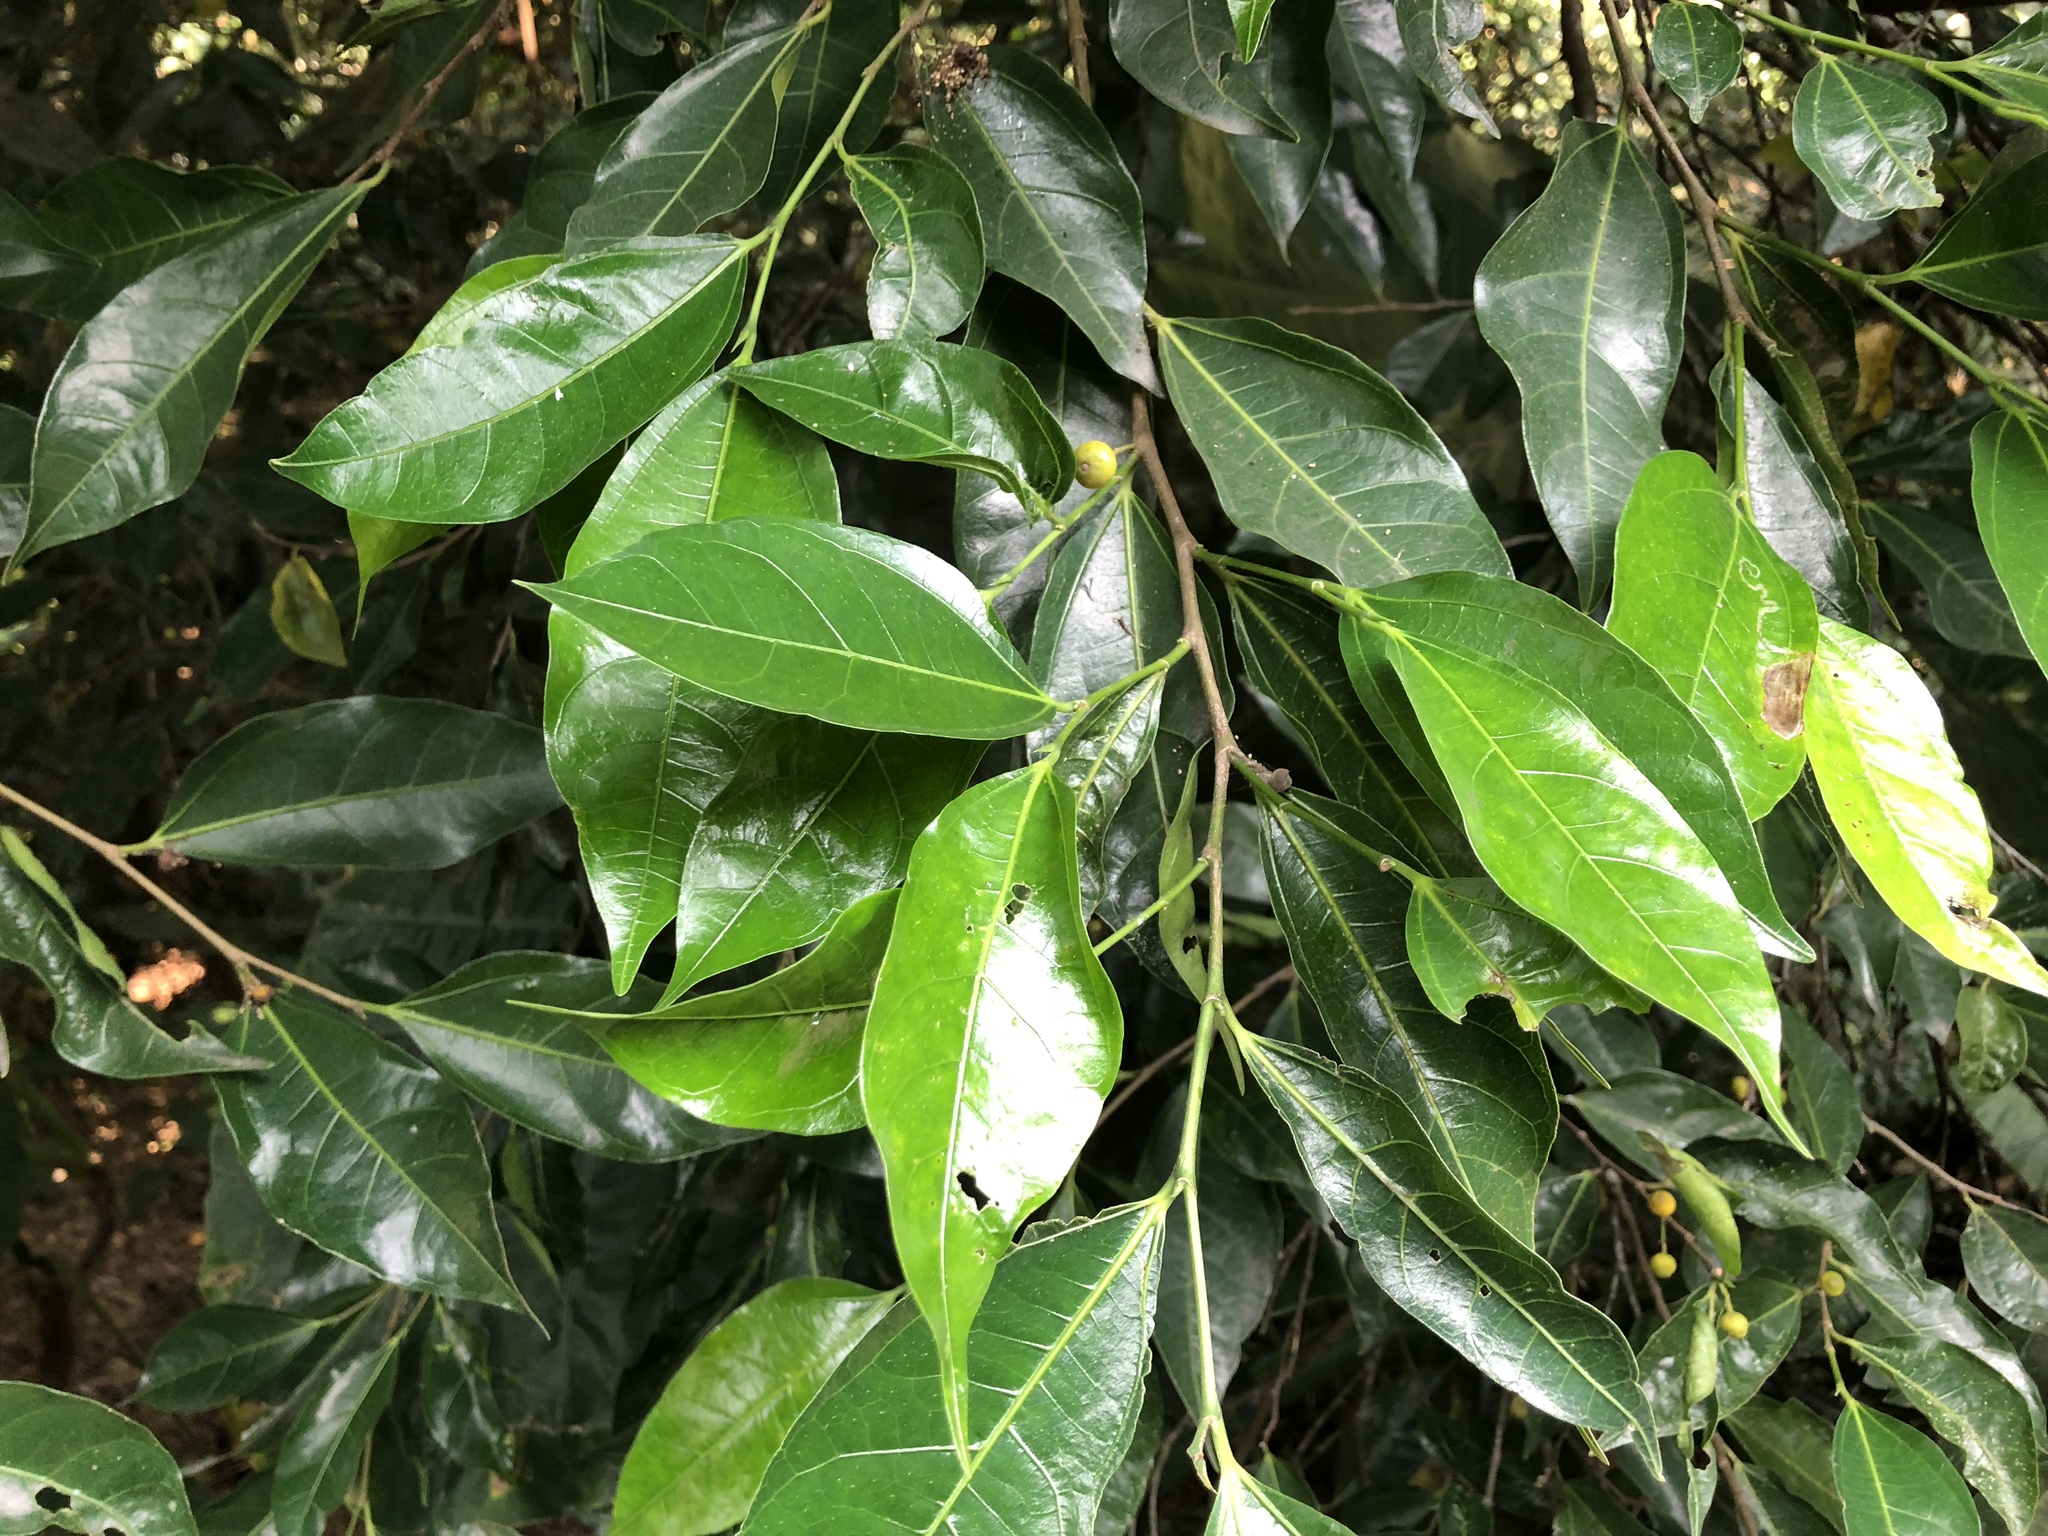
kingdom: Plantae
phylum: Tracheophyta
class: Magnoliopsida
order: Rosales
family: Moraceae
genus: Ficus
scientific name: Ficus ampelos
